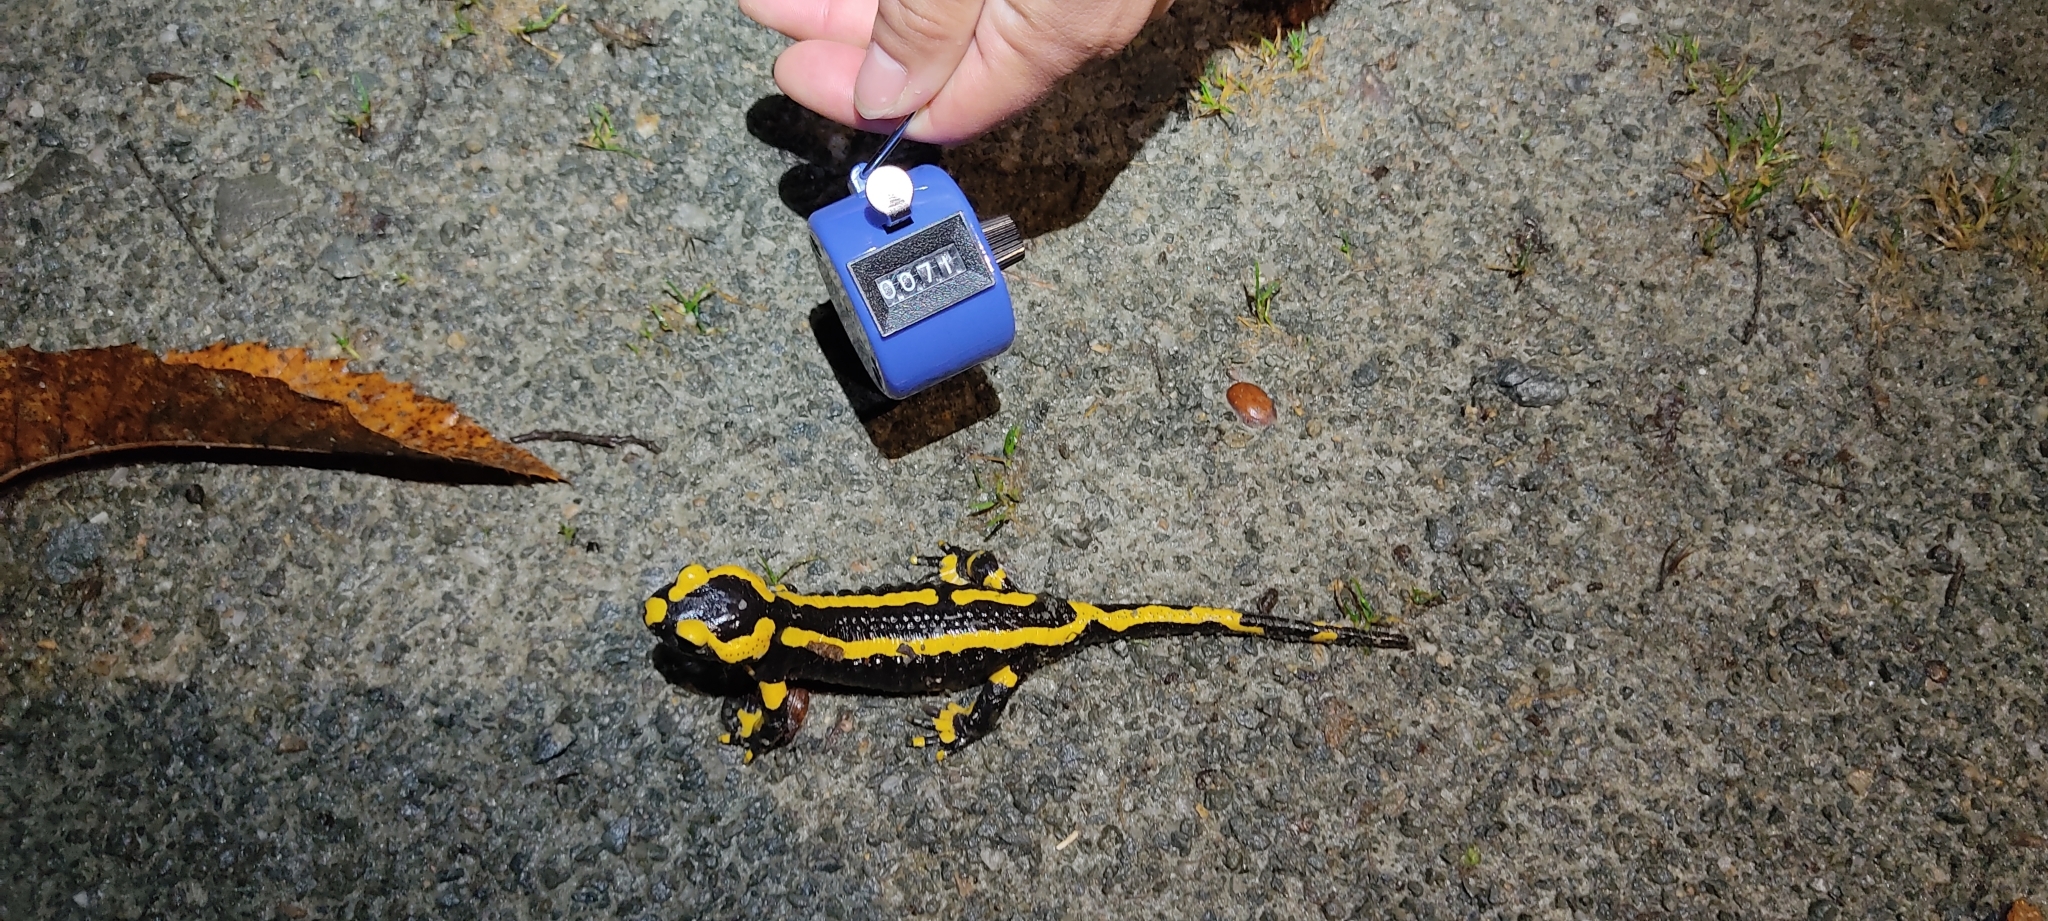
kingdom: Animalia
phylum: Chordata
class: Amphibia
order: Caudata
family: Salamandridae
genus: Salamandra
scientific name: Salamandra salamandra
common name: Fire salamander
